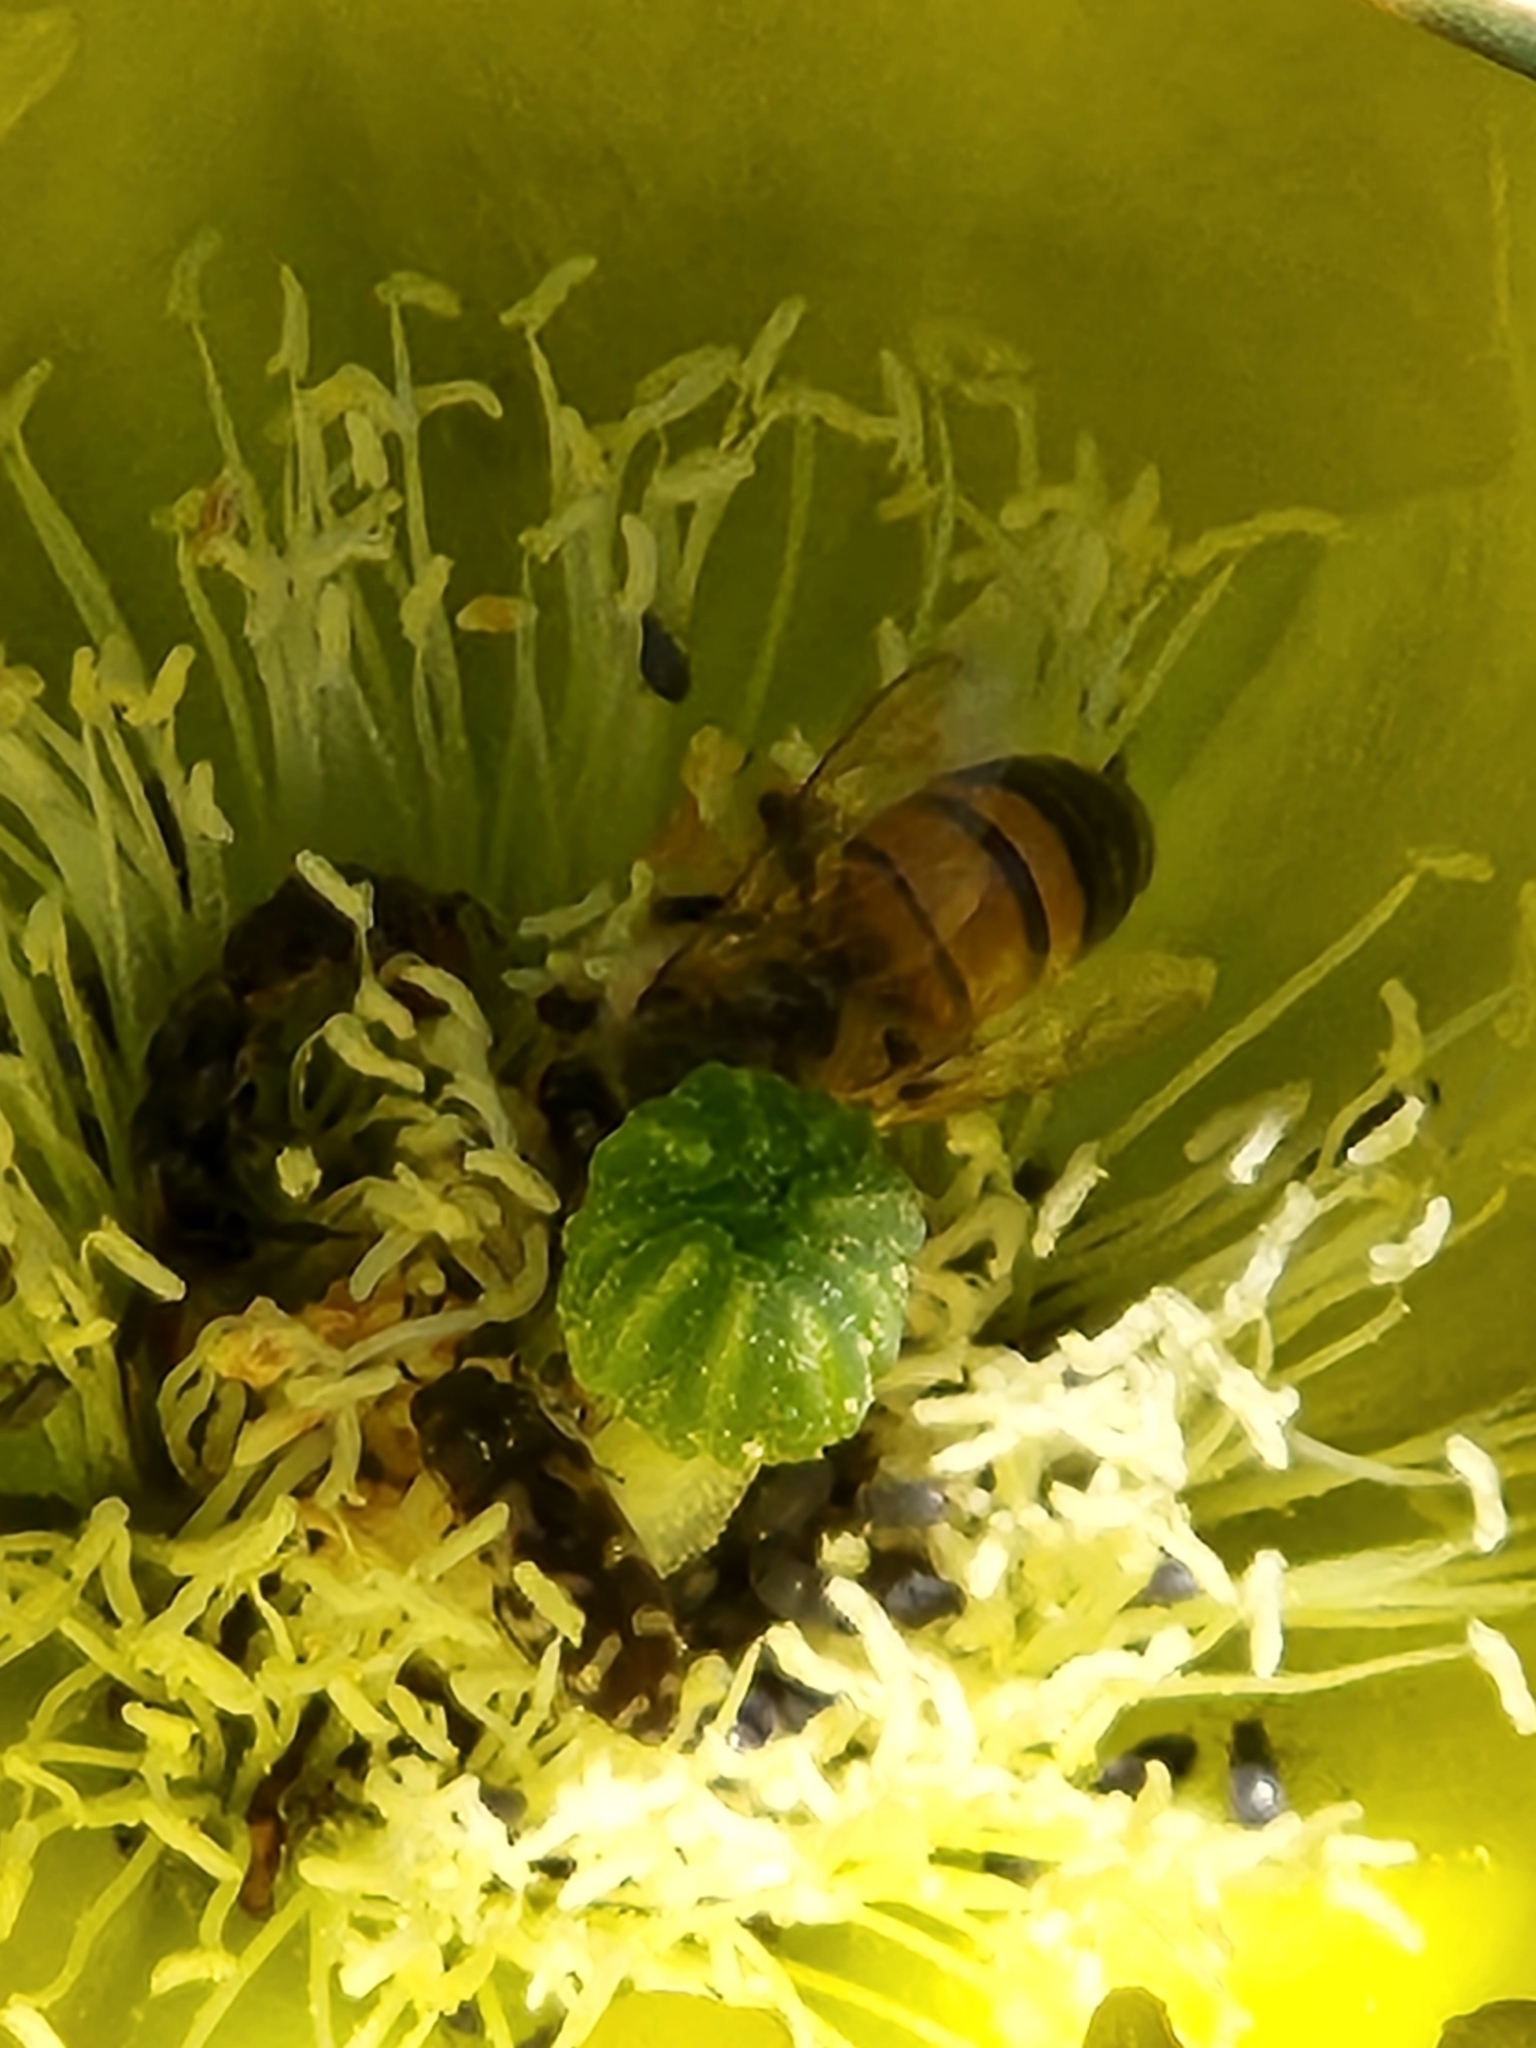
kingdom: Animalia
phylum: Arthropoda
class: Insecta
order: Hymenoptera
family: Apidae
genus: Apis
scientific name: Apis mellifera
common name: Honey bee
